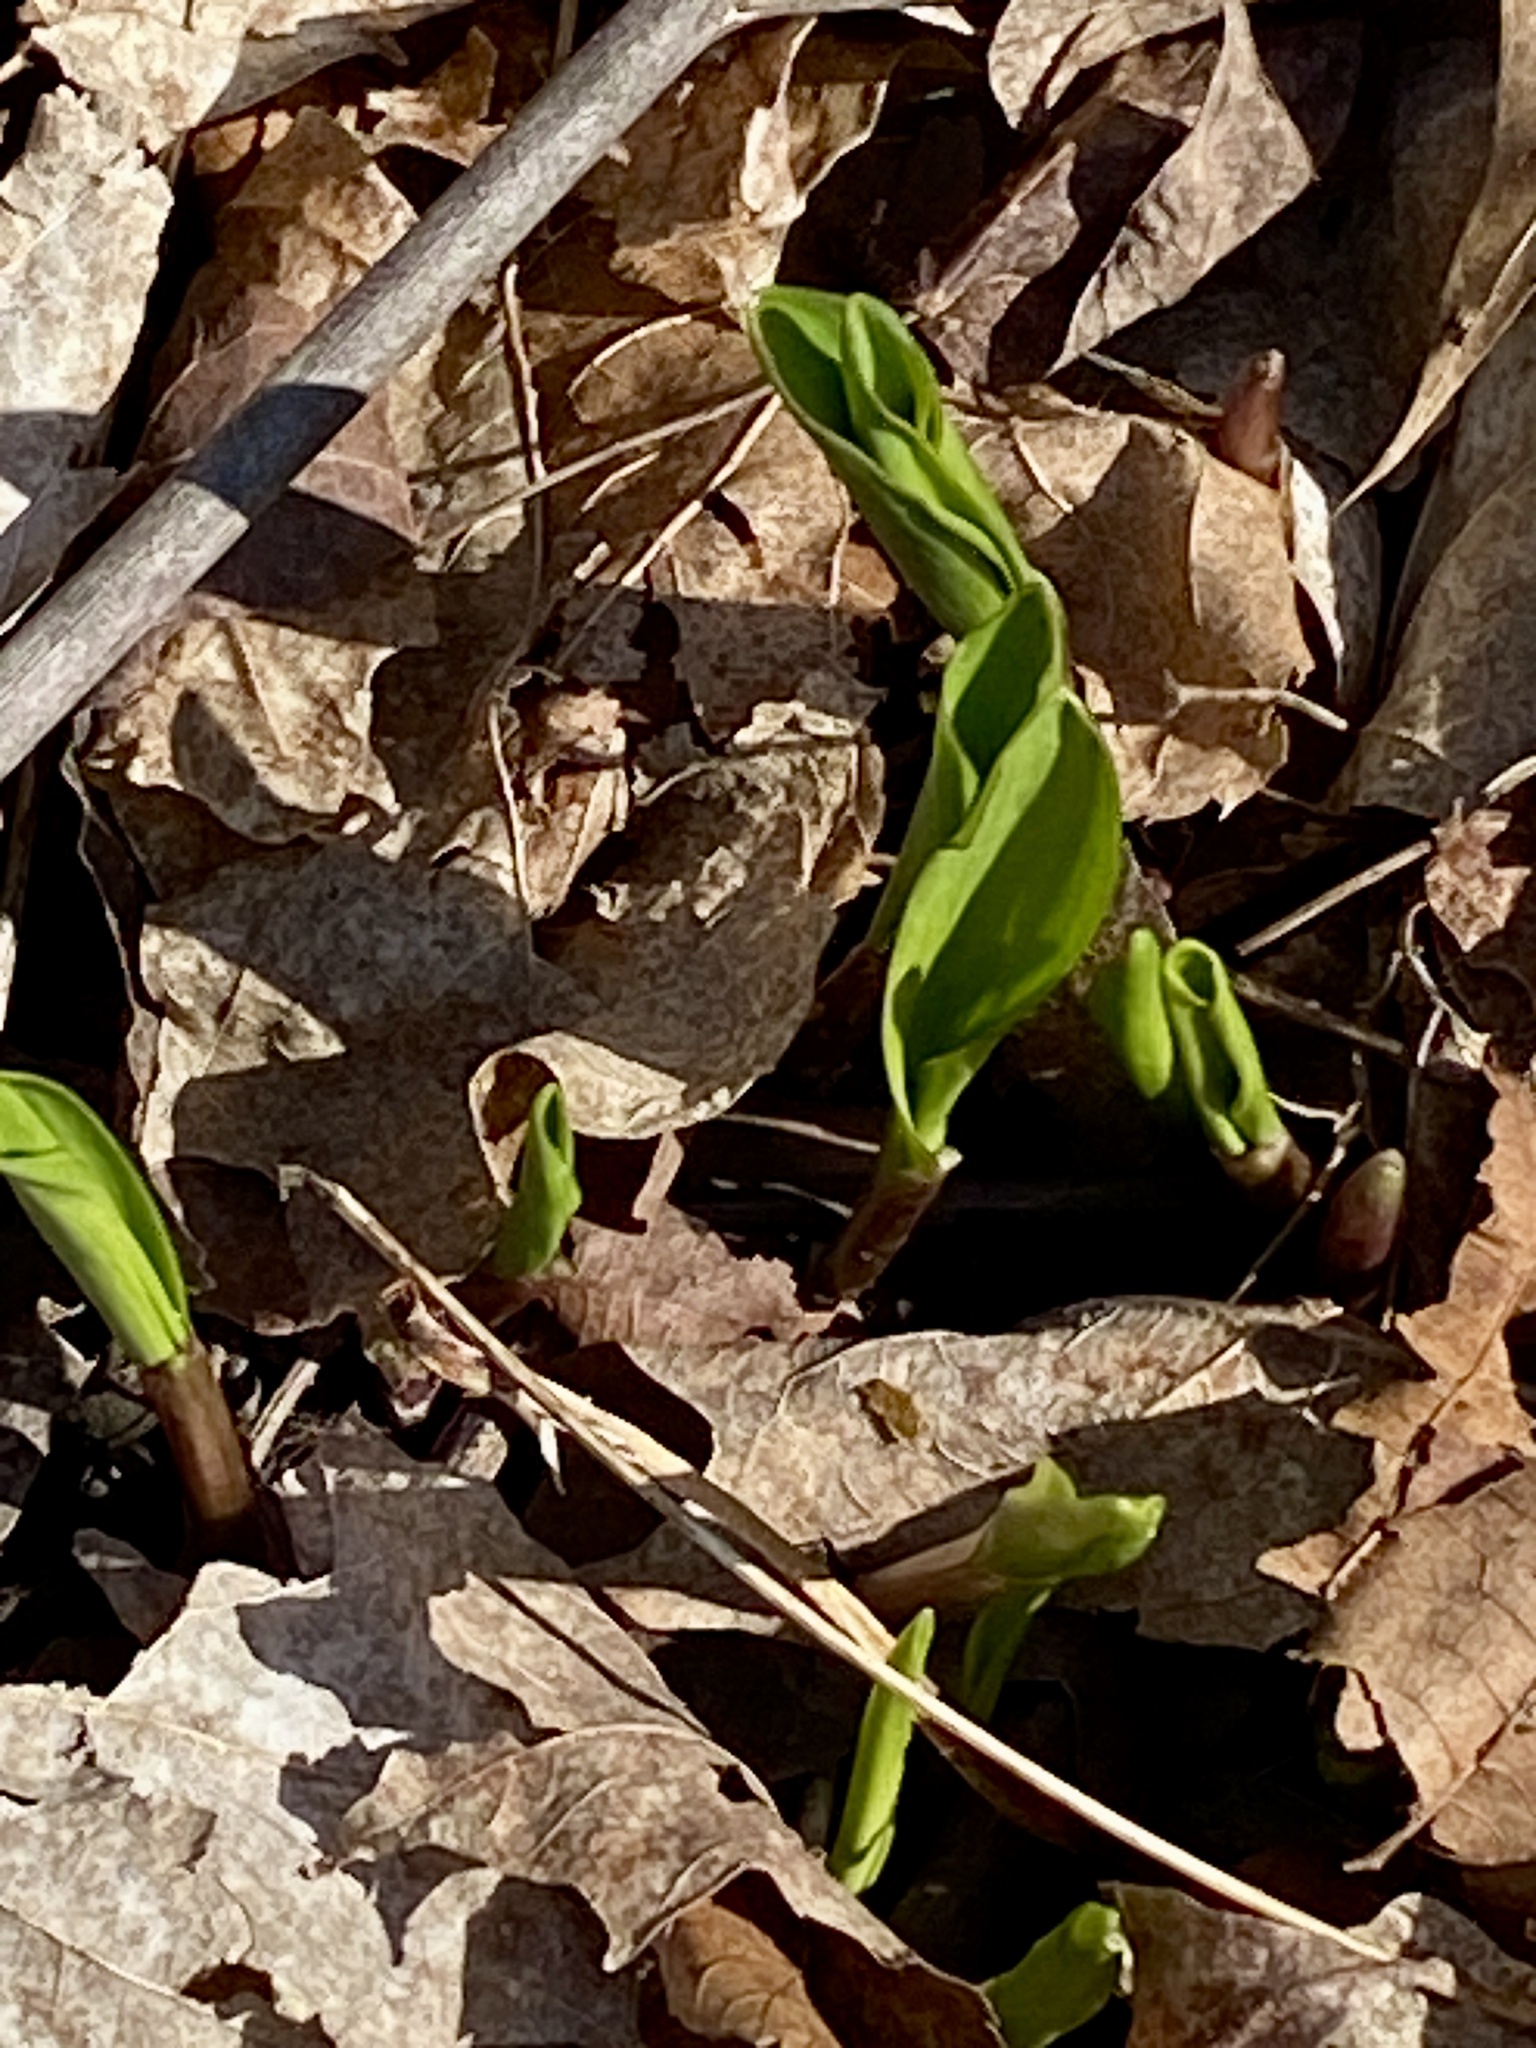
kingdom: Plantae
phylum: Tracheophyta
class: Liliopsida
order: Asparagales
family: Amaryllidaceae
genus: Allium
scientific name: Allium tricoccum
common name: Ramp
